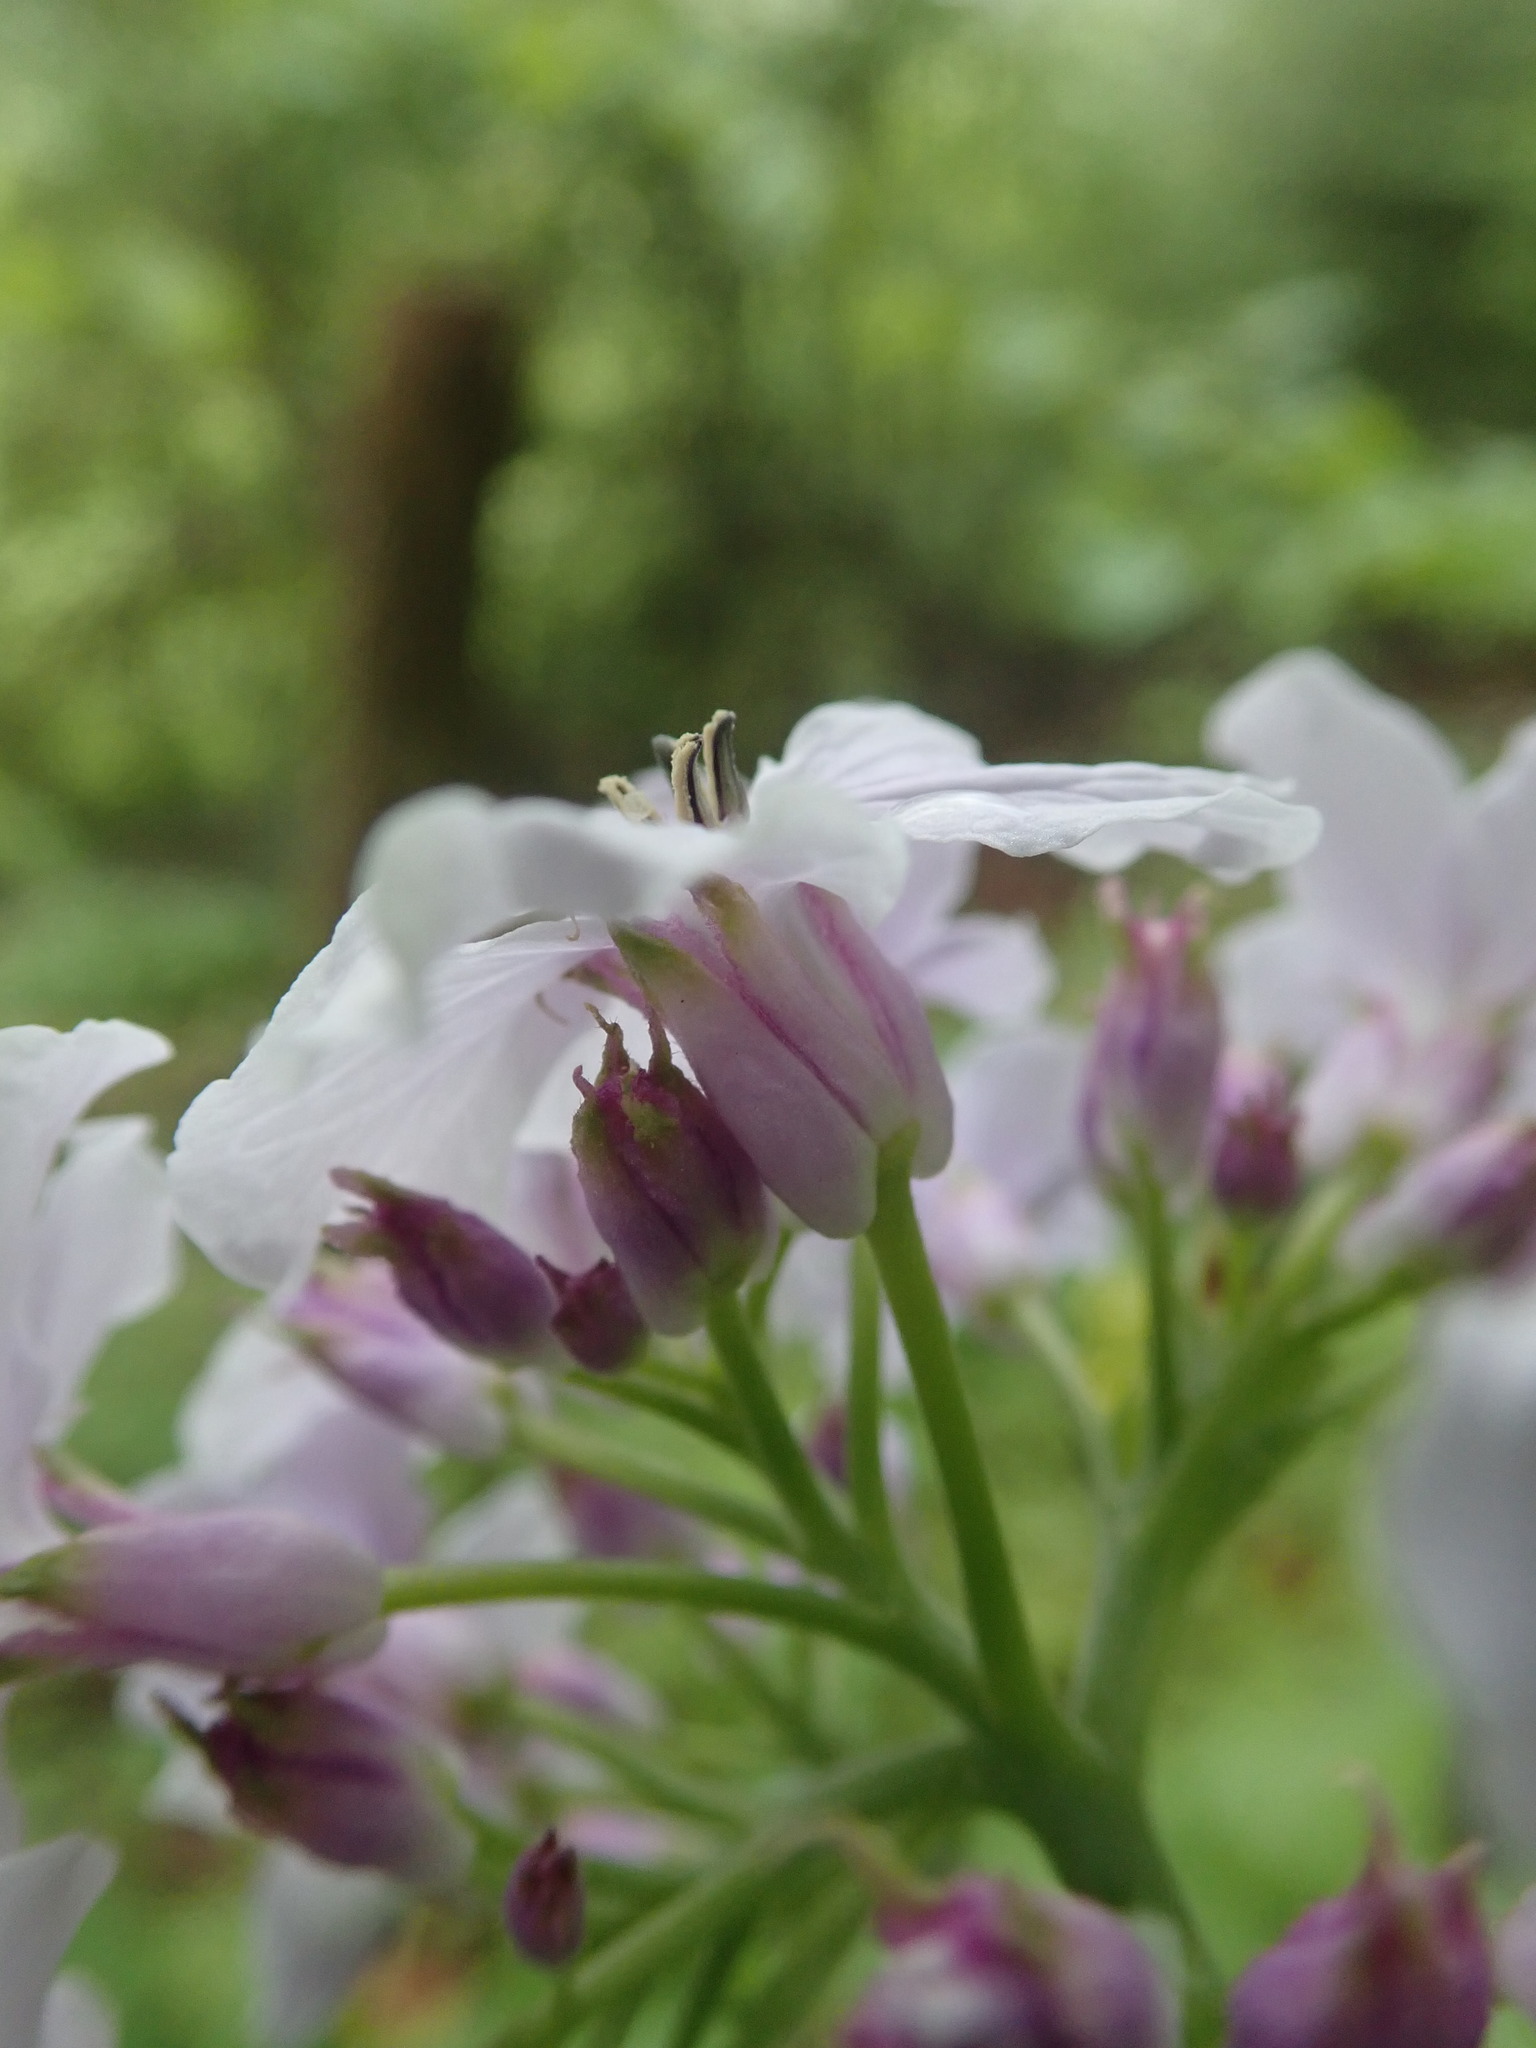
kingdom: Plantae
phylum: Tracheophyta
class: Magnoliopsida
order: Brassicales
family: Brassicaceae
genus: Lunaria
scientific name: Lunaria rediviva
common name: Perennial honesty
